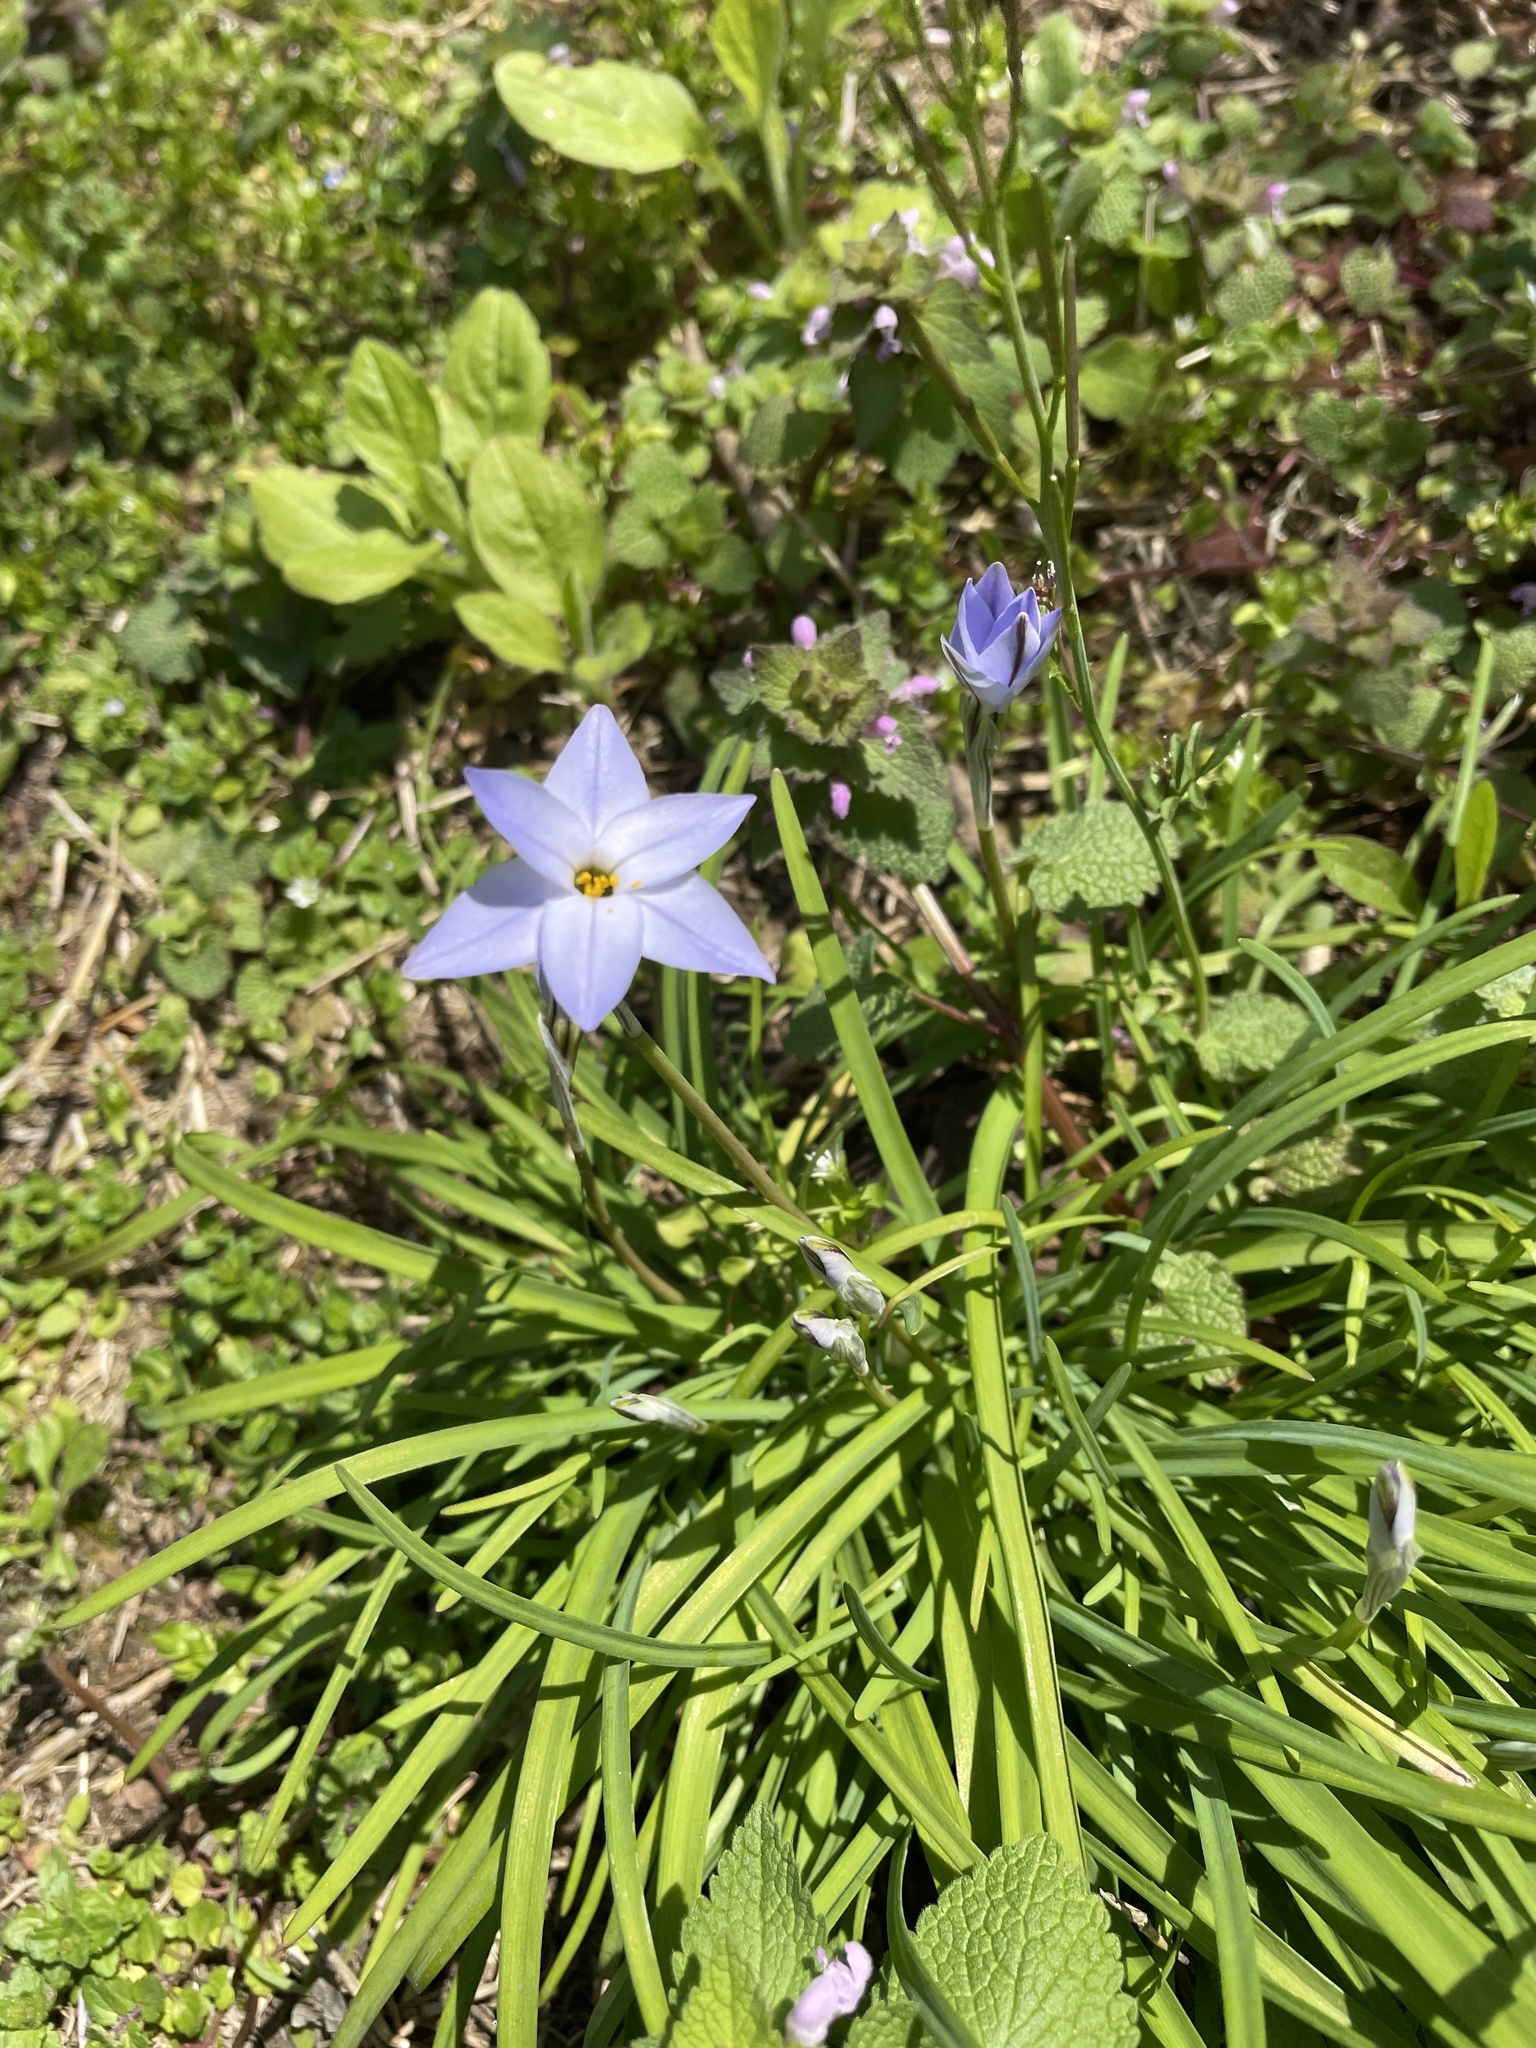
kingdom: Plantae
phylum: Tracheophyta
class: Liliopsida
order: Asparagales
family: Amaryllidaceae
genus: Ipheion
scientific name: Ipheion uniflorum
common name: Spring starflower
